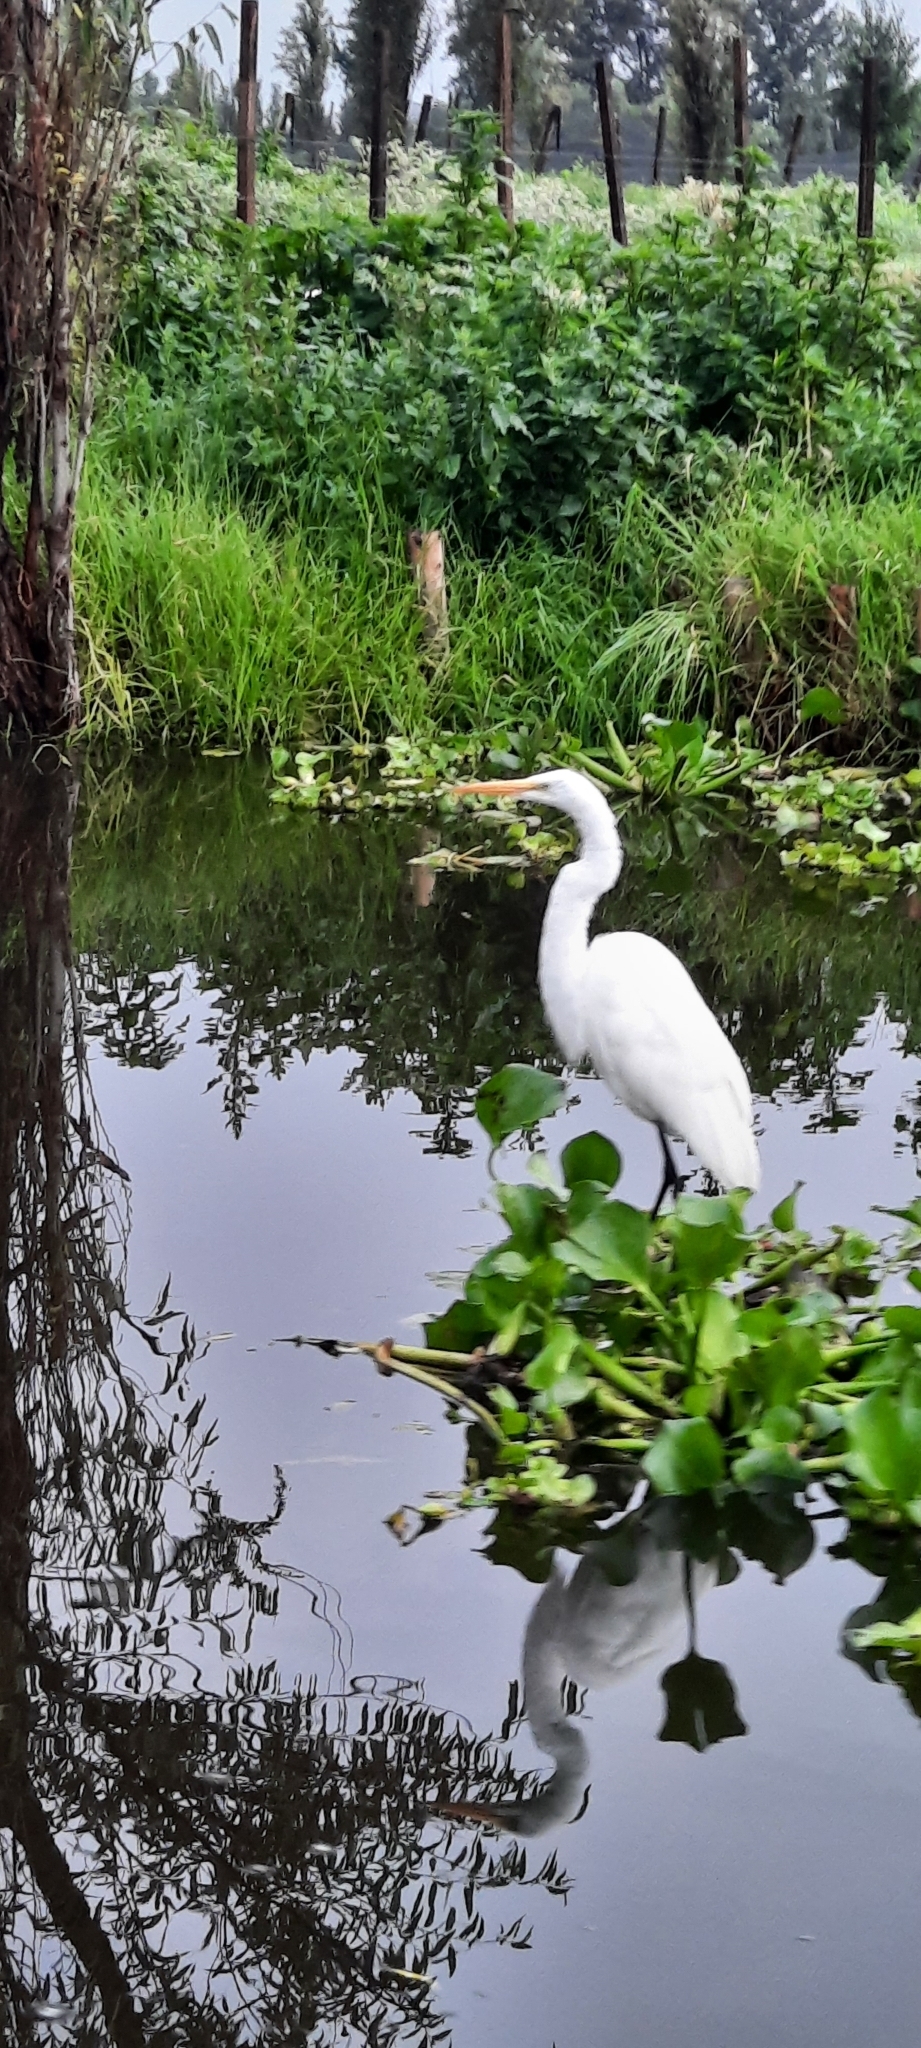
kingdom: Animalia
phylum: Chordata
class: Aves
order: Pelecaniformes
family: Ardeidae
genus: Ardea
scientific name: Ardea alba
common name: Great egret
